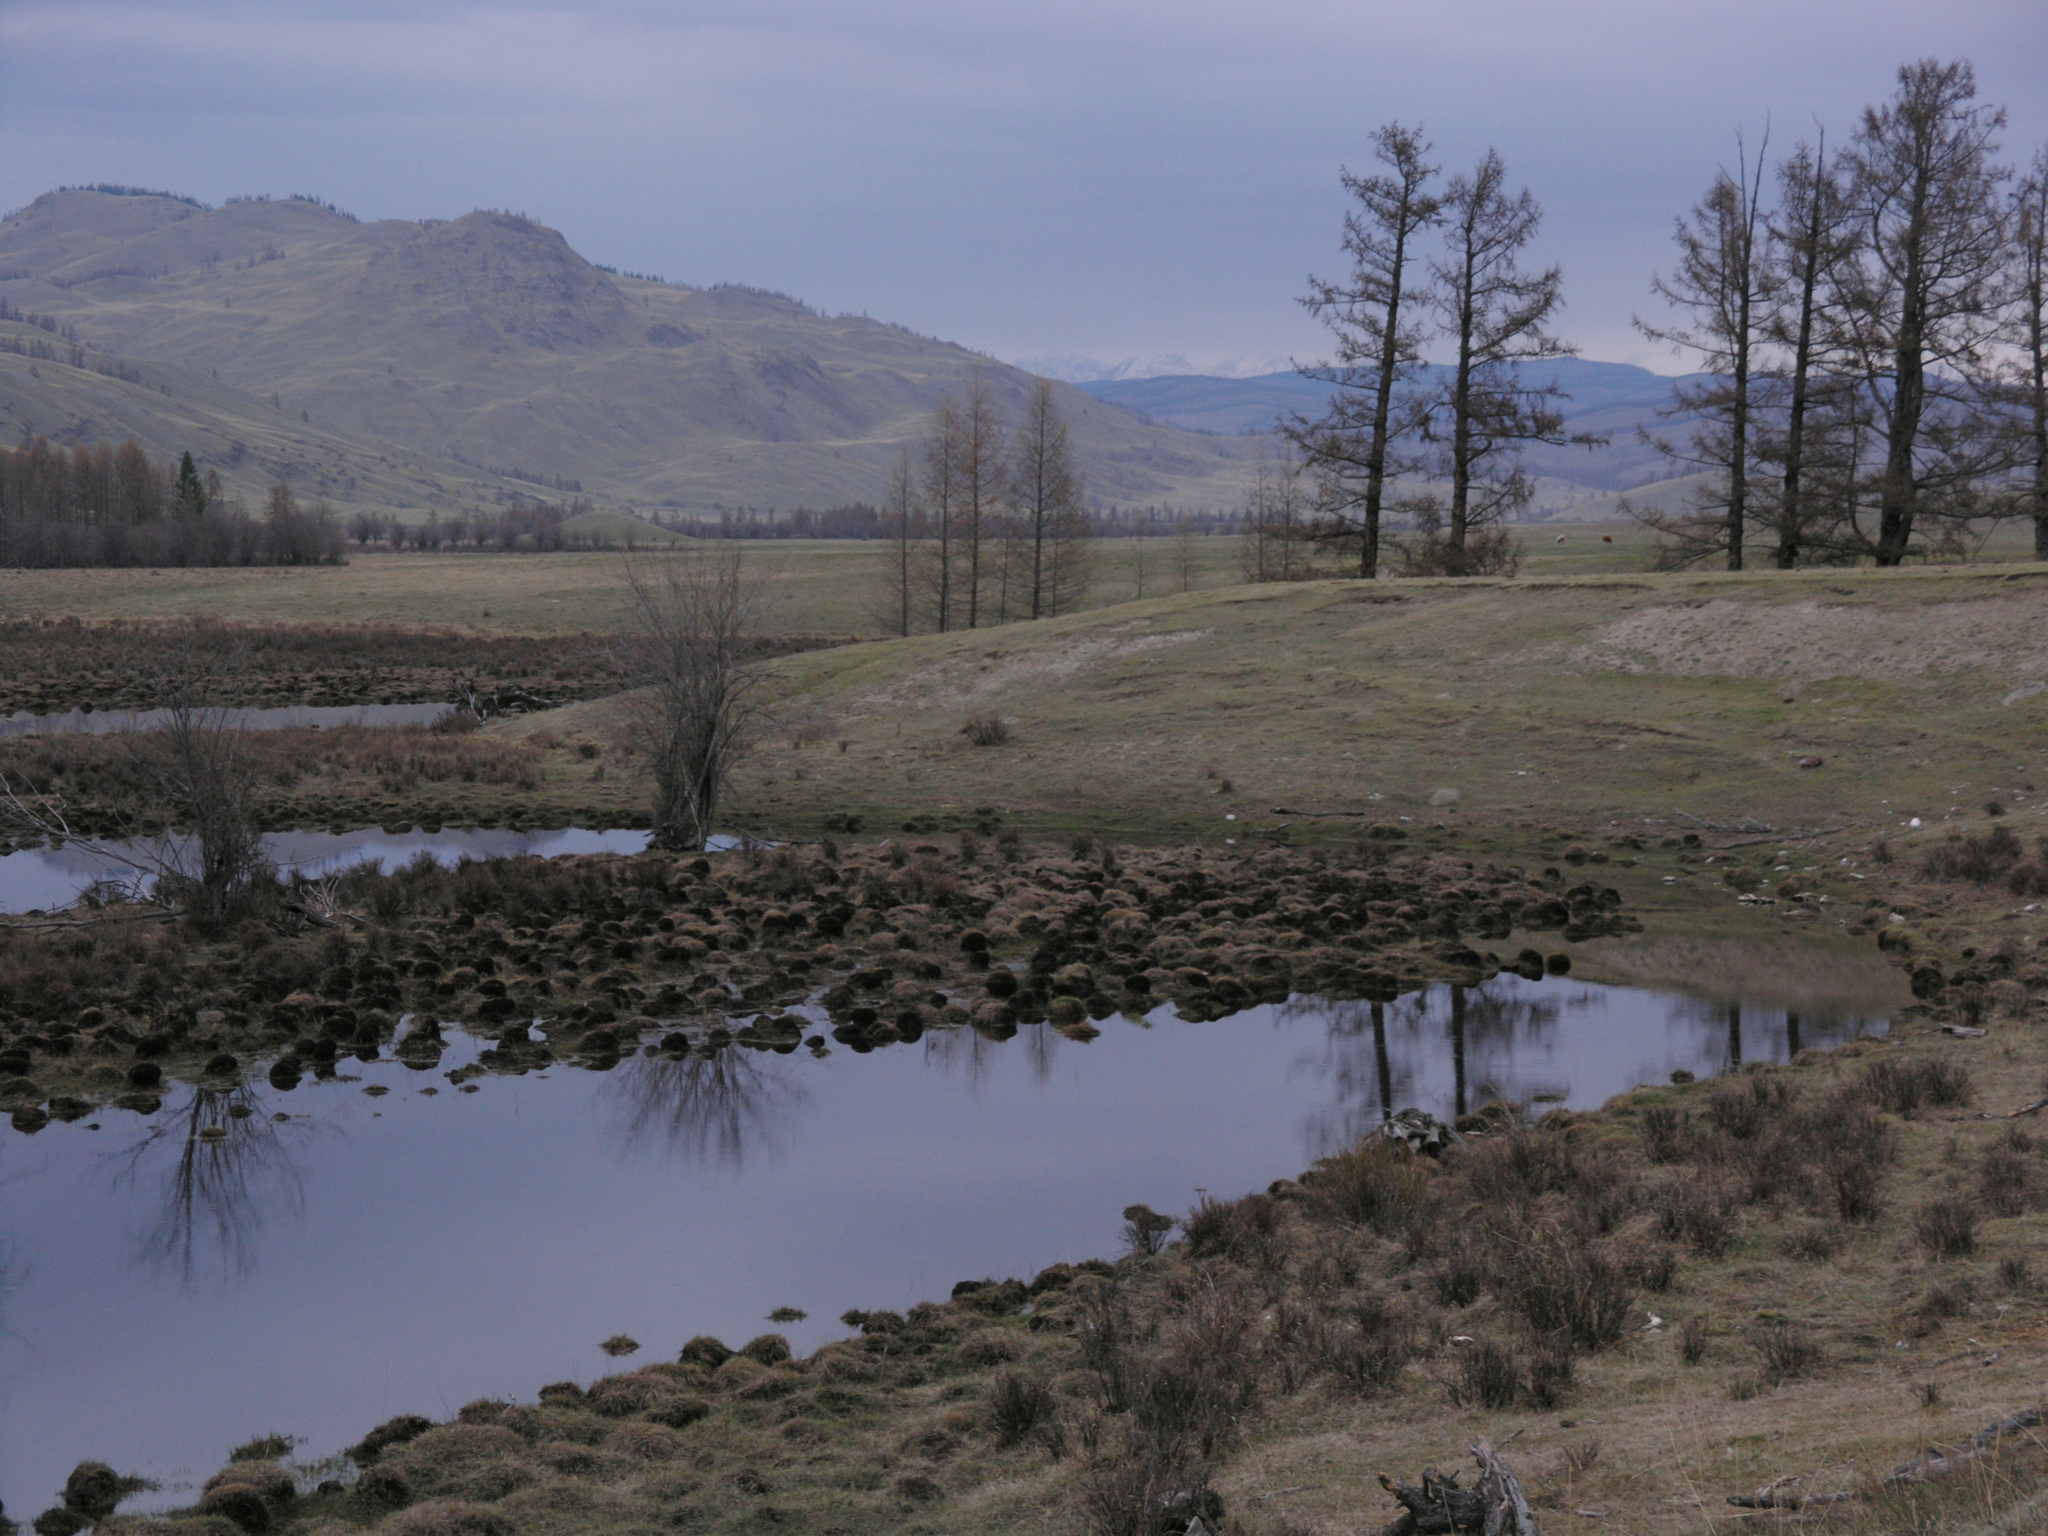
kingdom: Plantae
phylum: Tracheophyta
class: Pinopsida
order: Pinales
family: Pinaceae
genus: Larix
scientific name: Larix sibirica
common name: Siberian larch
